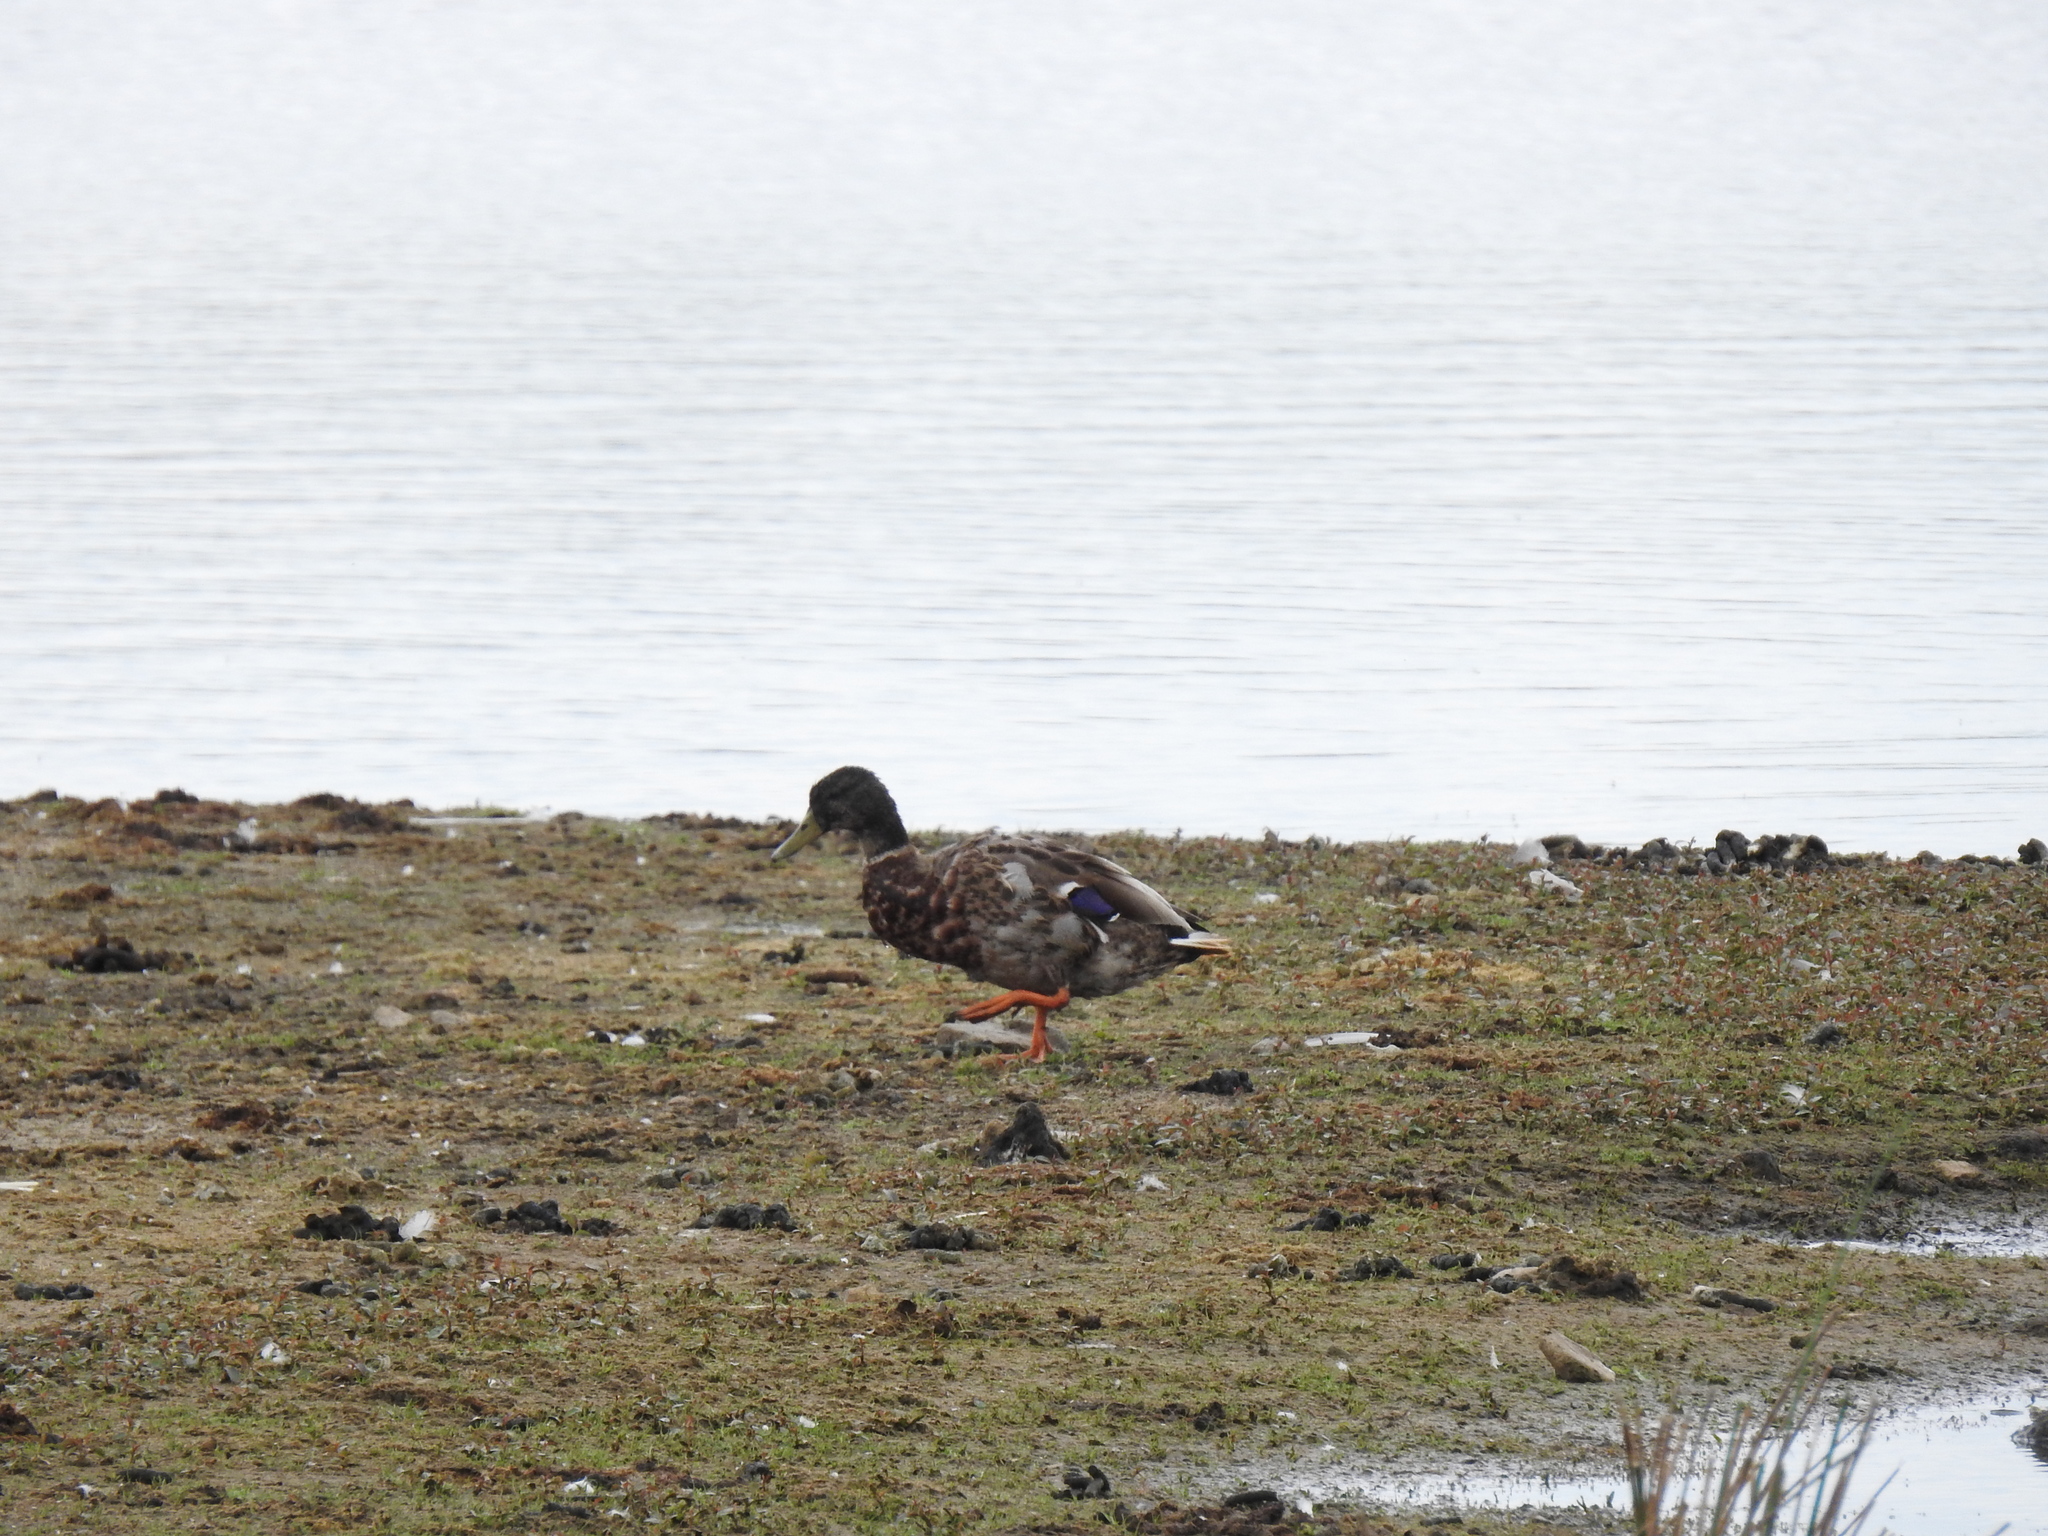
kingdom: Animalia
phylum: Chordata
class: Aves
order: Anseriformes
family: Anatidae
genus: Anas
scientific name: Anas platyrhynchos
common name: Mallard
